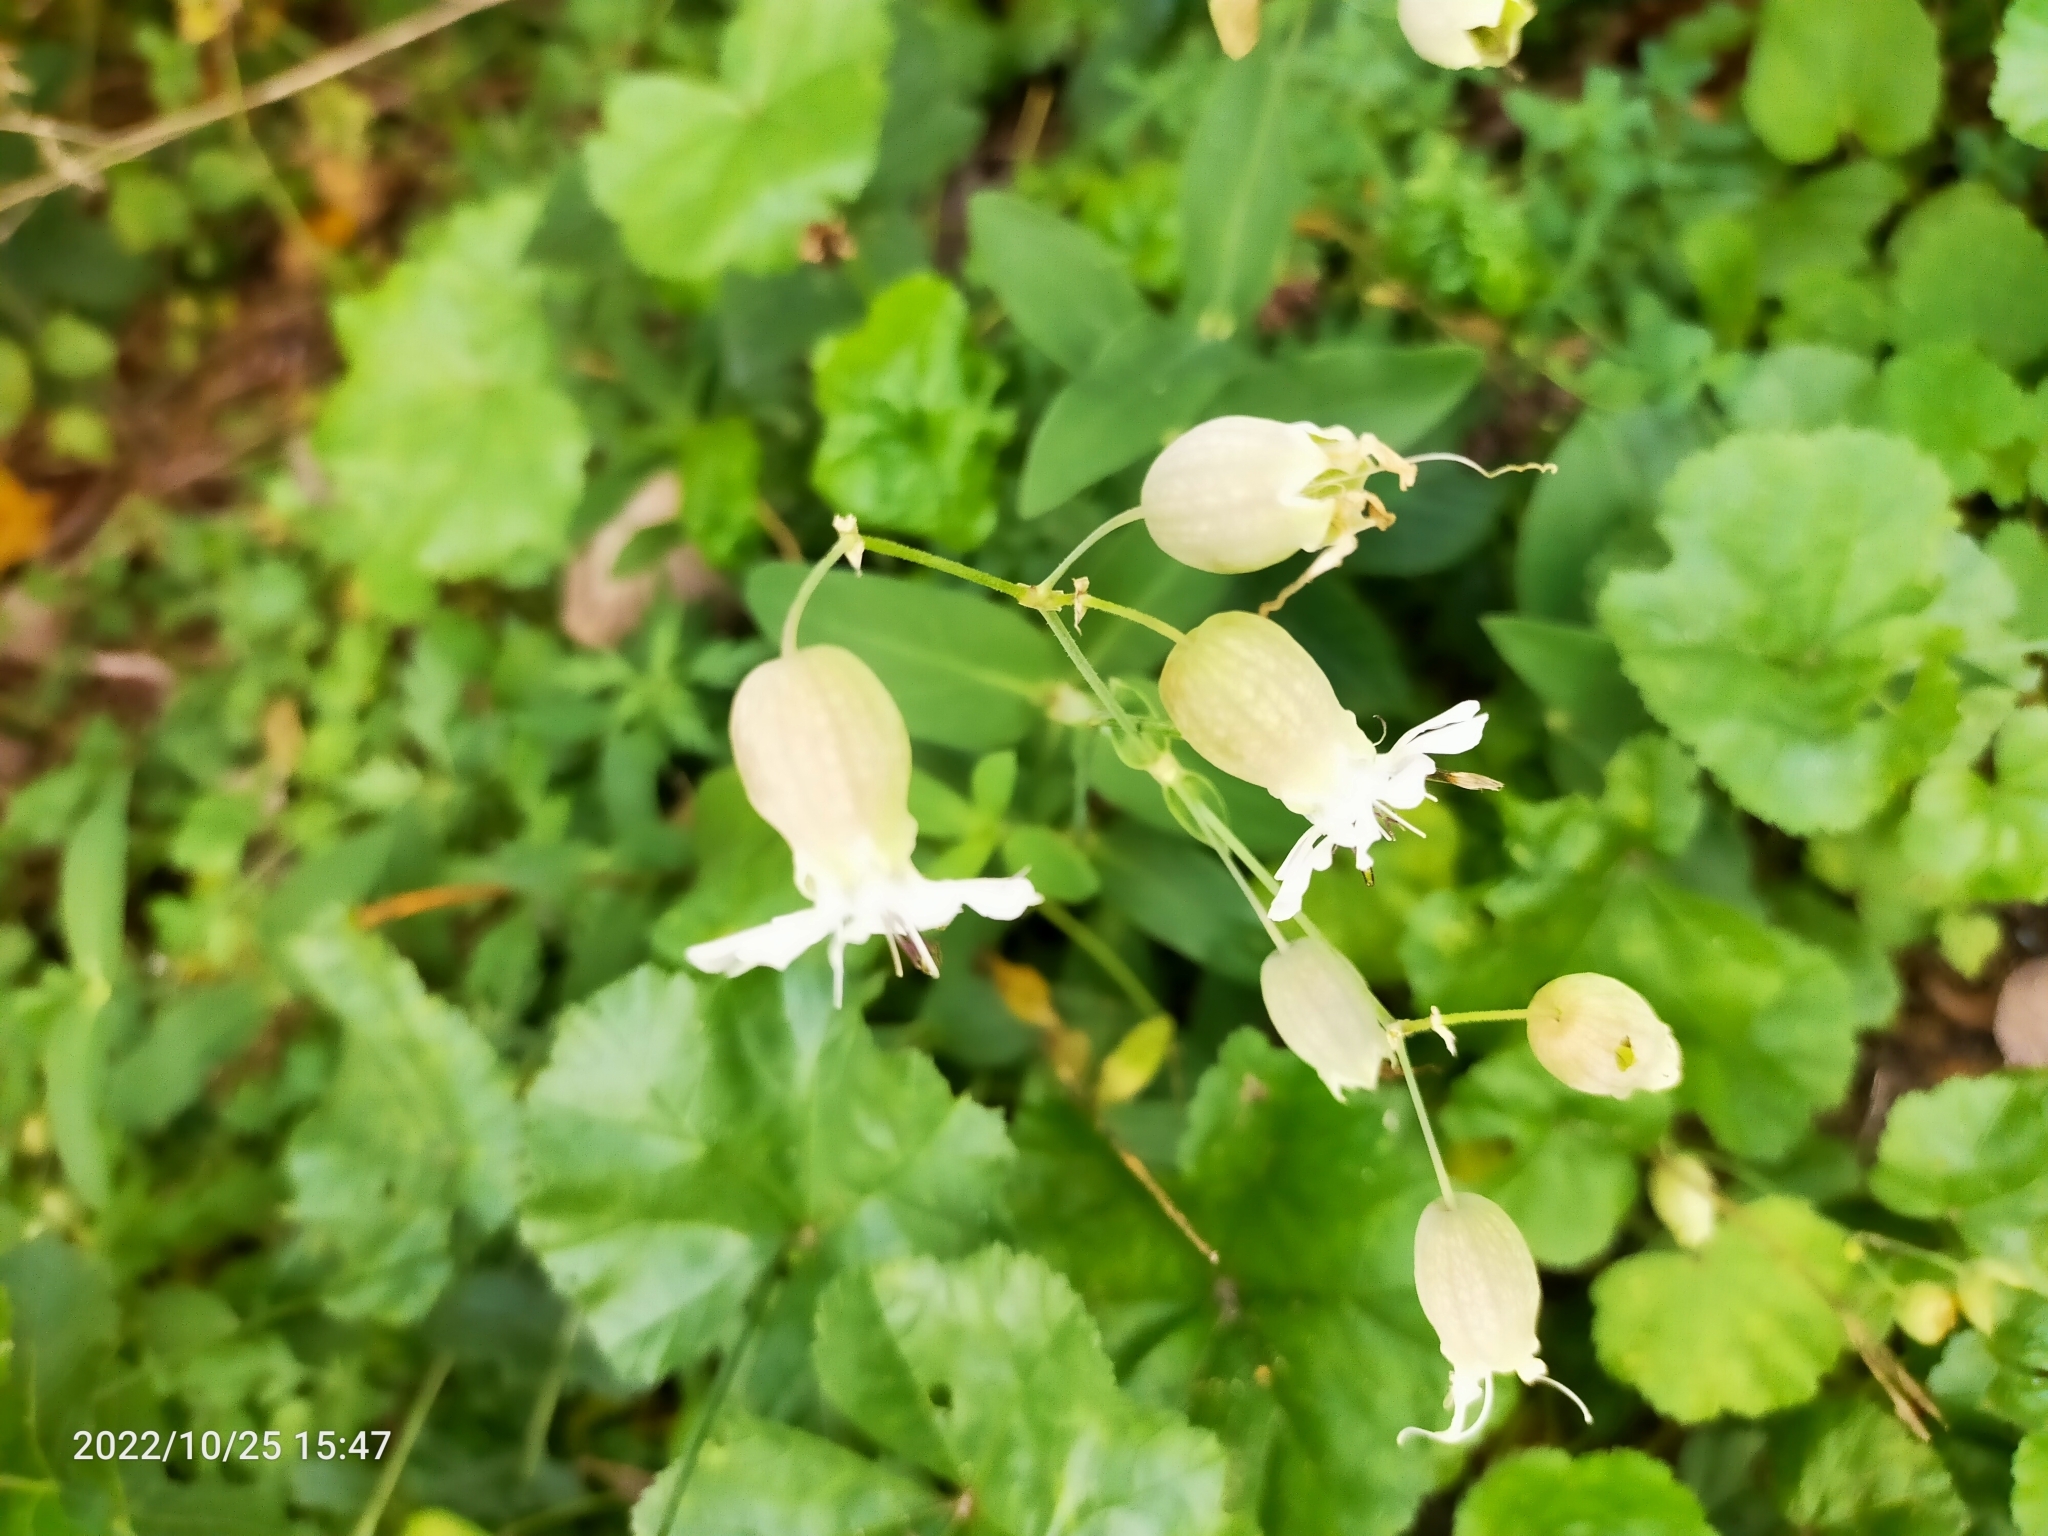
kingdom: Plantae
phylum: Tracheophyta
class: Magnoliopsida
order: Caryophyllales
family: Caryophyllaceae
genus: Silene
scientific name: Silene vulgaris
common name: Bladder campion
